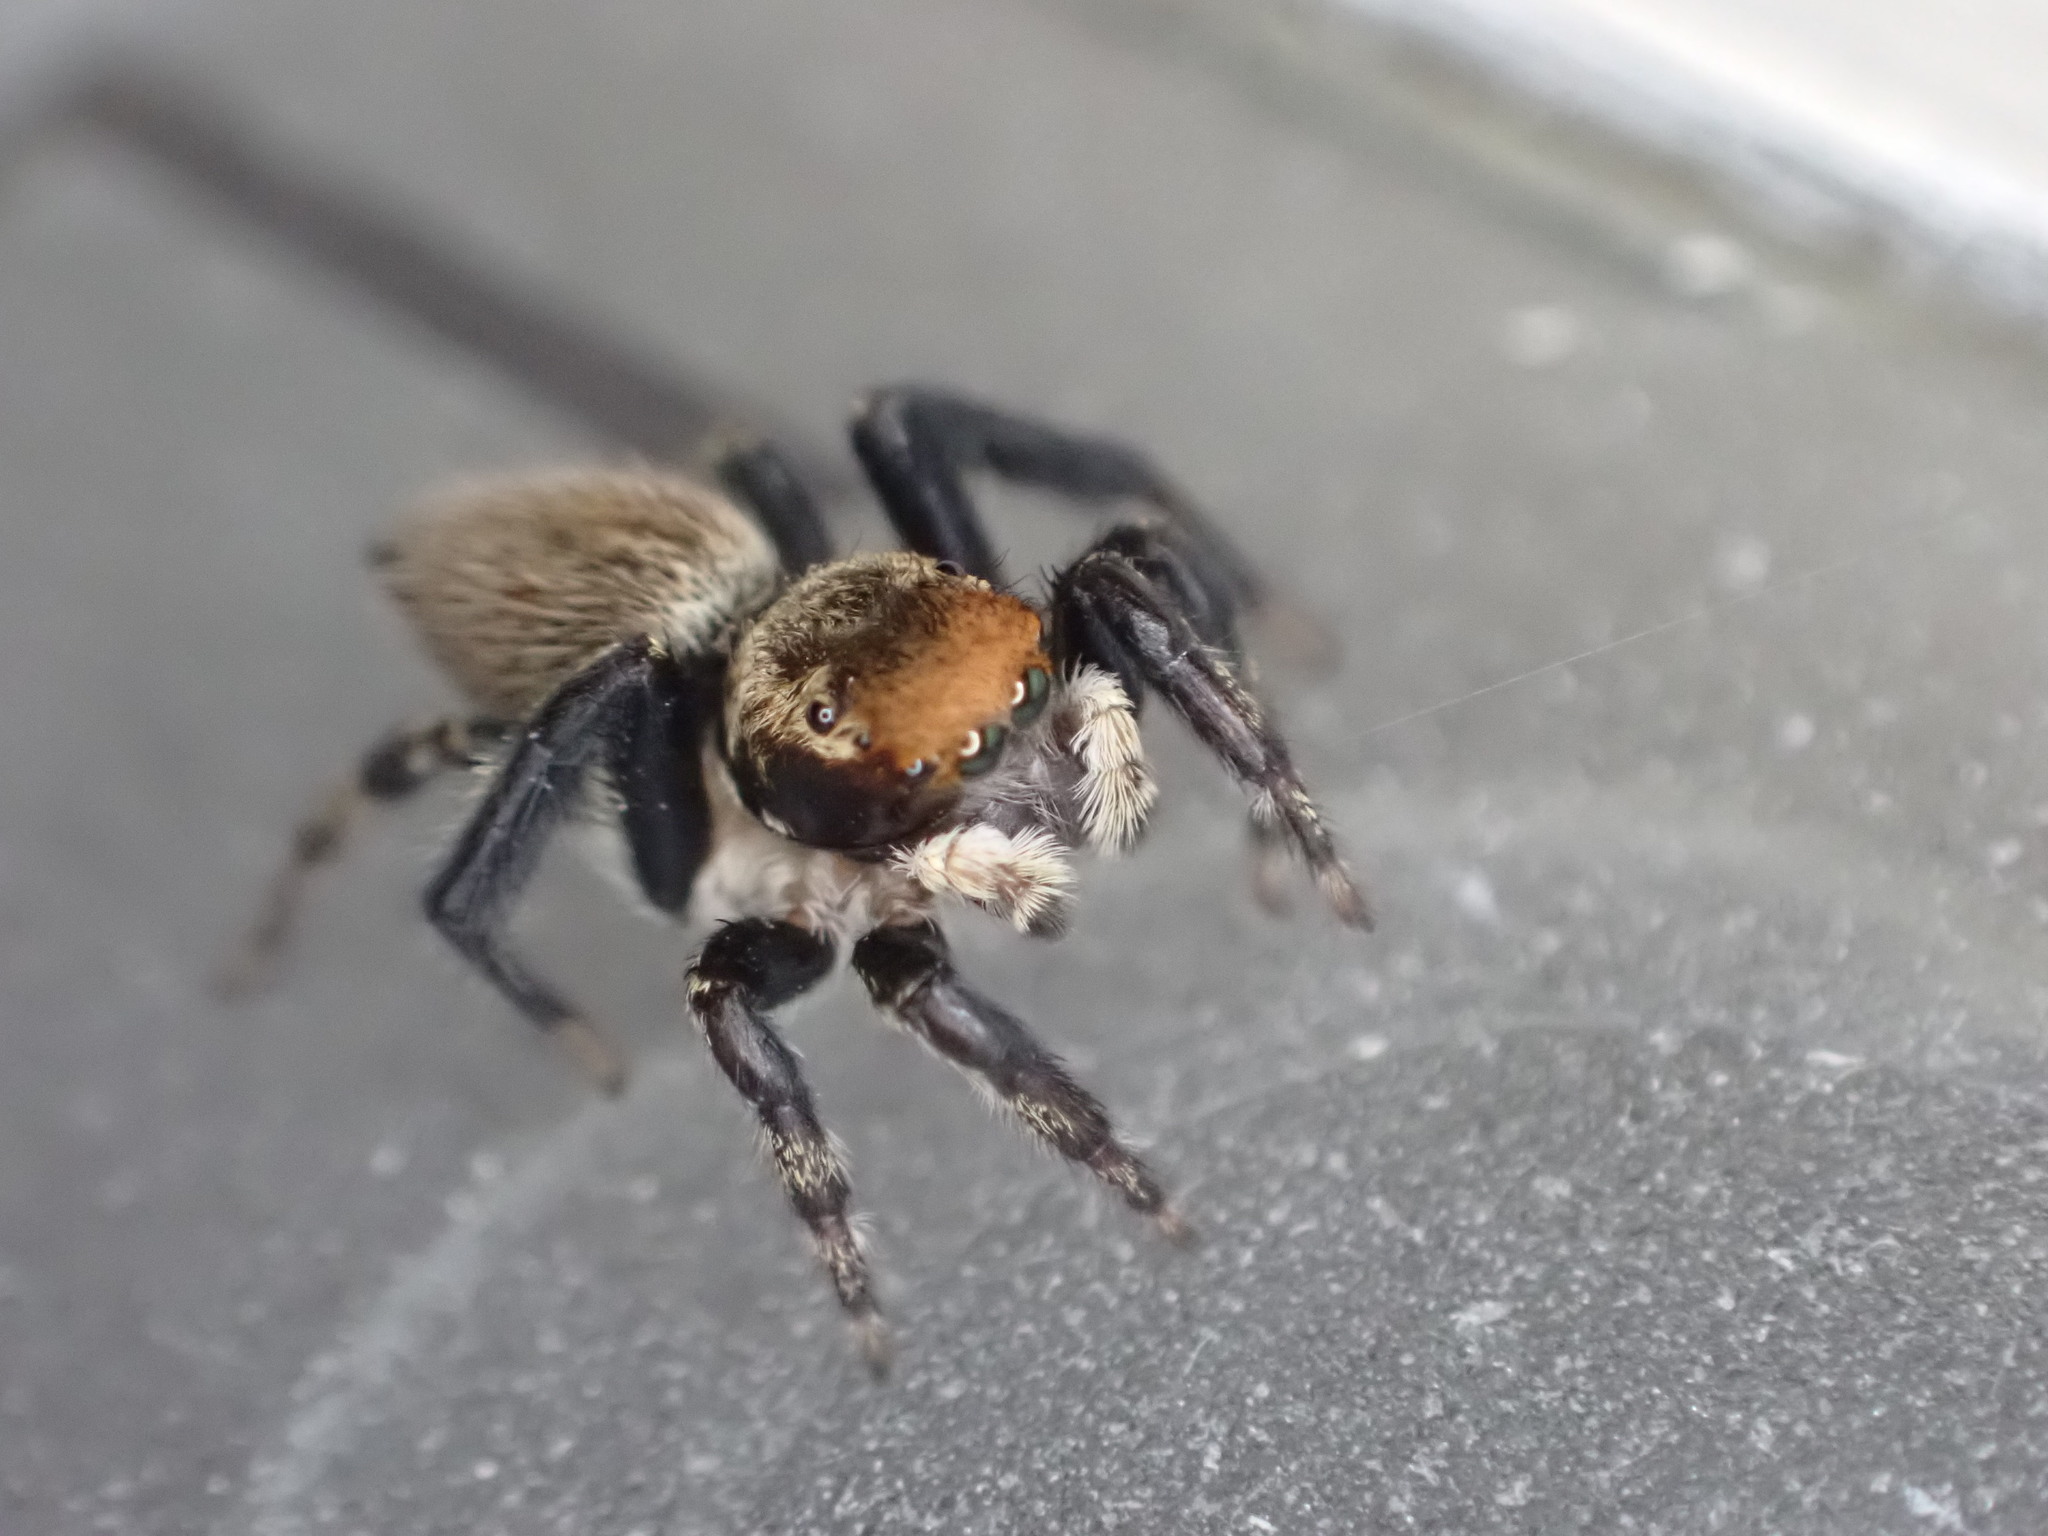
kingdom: Animalia
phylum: Arthropoda
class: Arachnida
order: Araneae
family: Salticidae
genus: Maratus
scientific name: Maratus griseus
